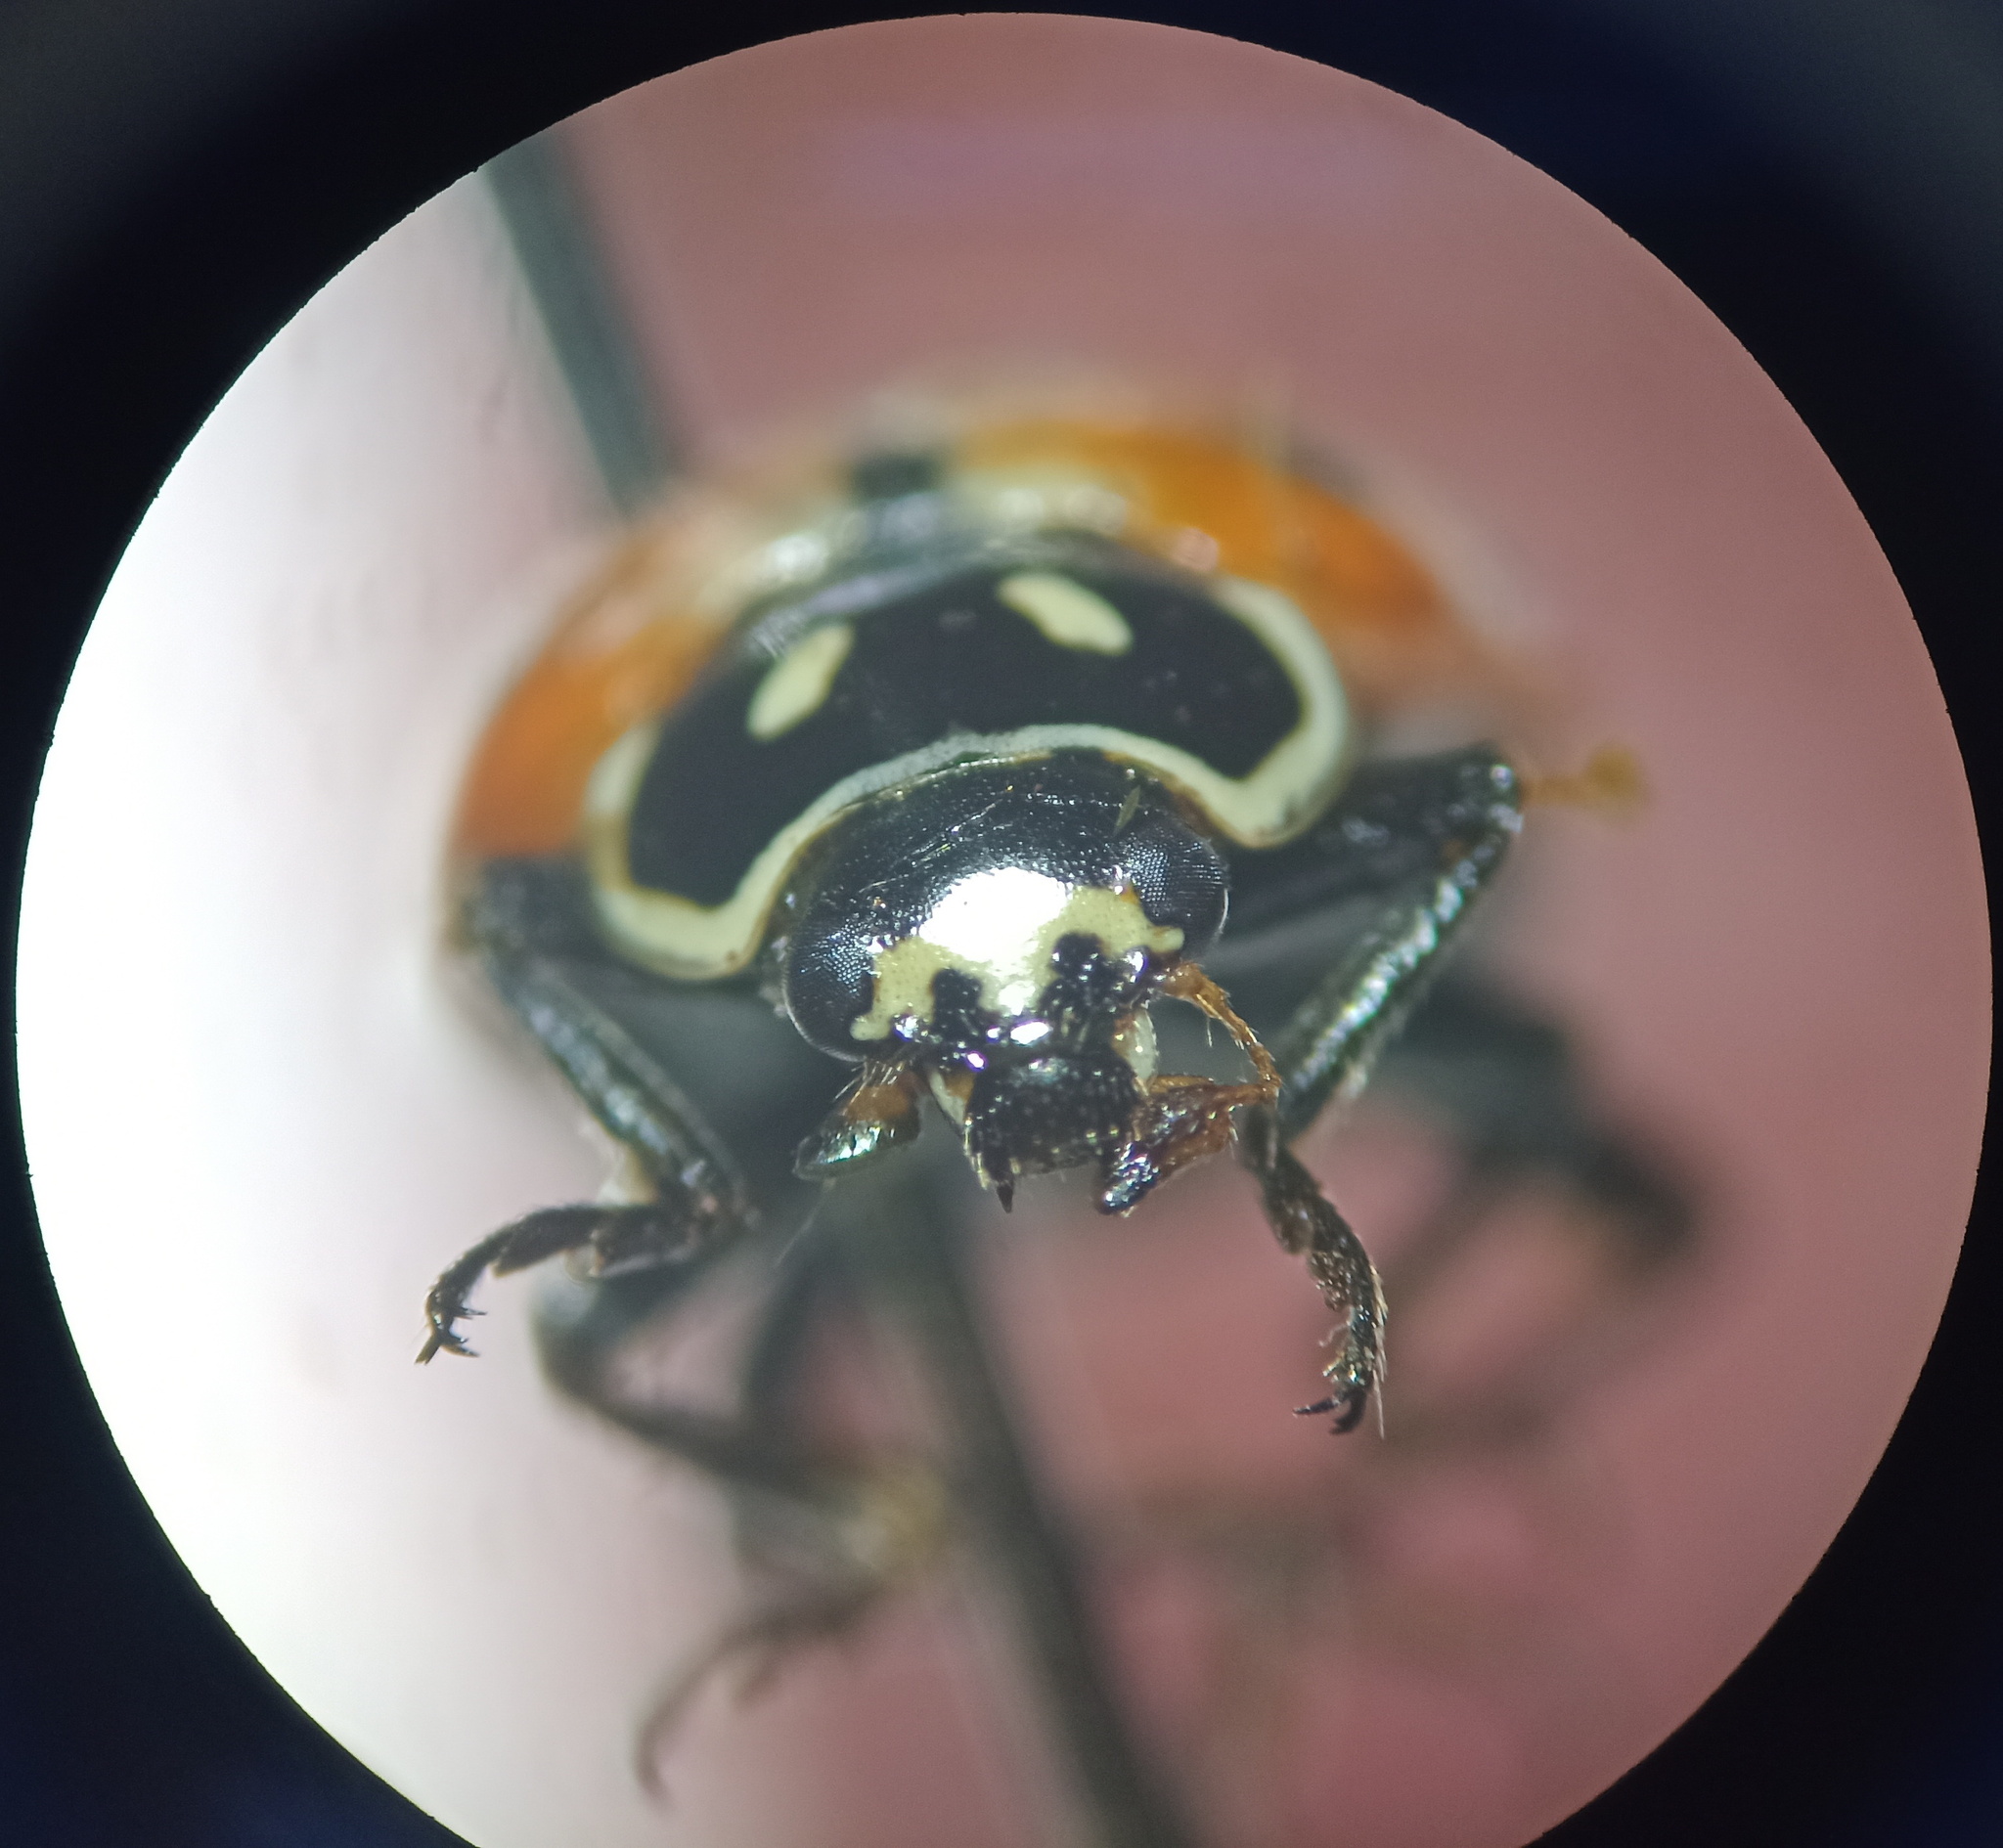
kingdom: Animalia
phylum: Arthropoda
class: Insecta
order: Coleoptera
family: Coccinellidae
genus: Hippodamia
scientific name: Hippodamia convergens
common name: Convergent lady beetle
